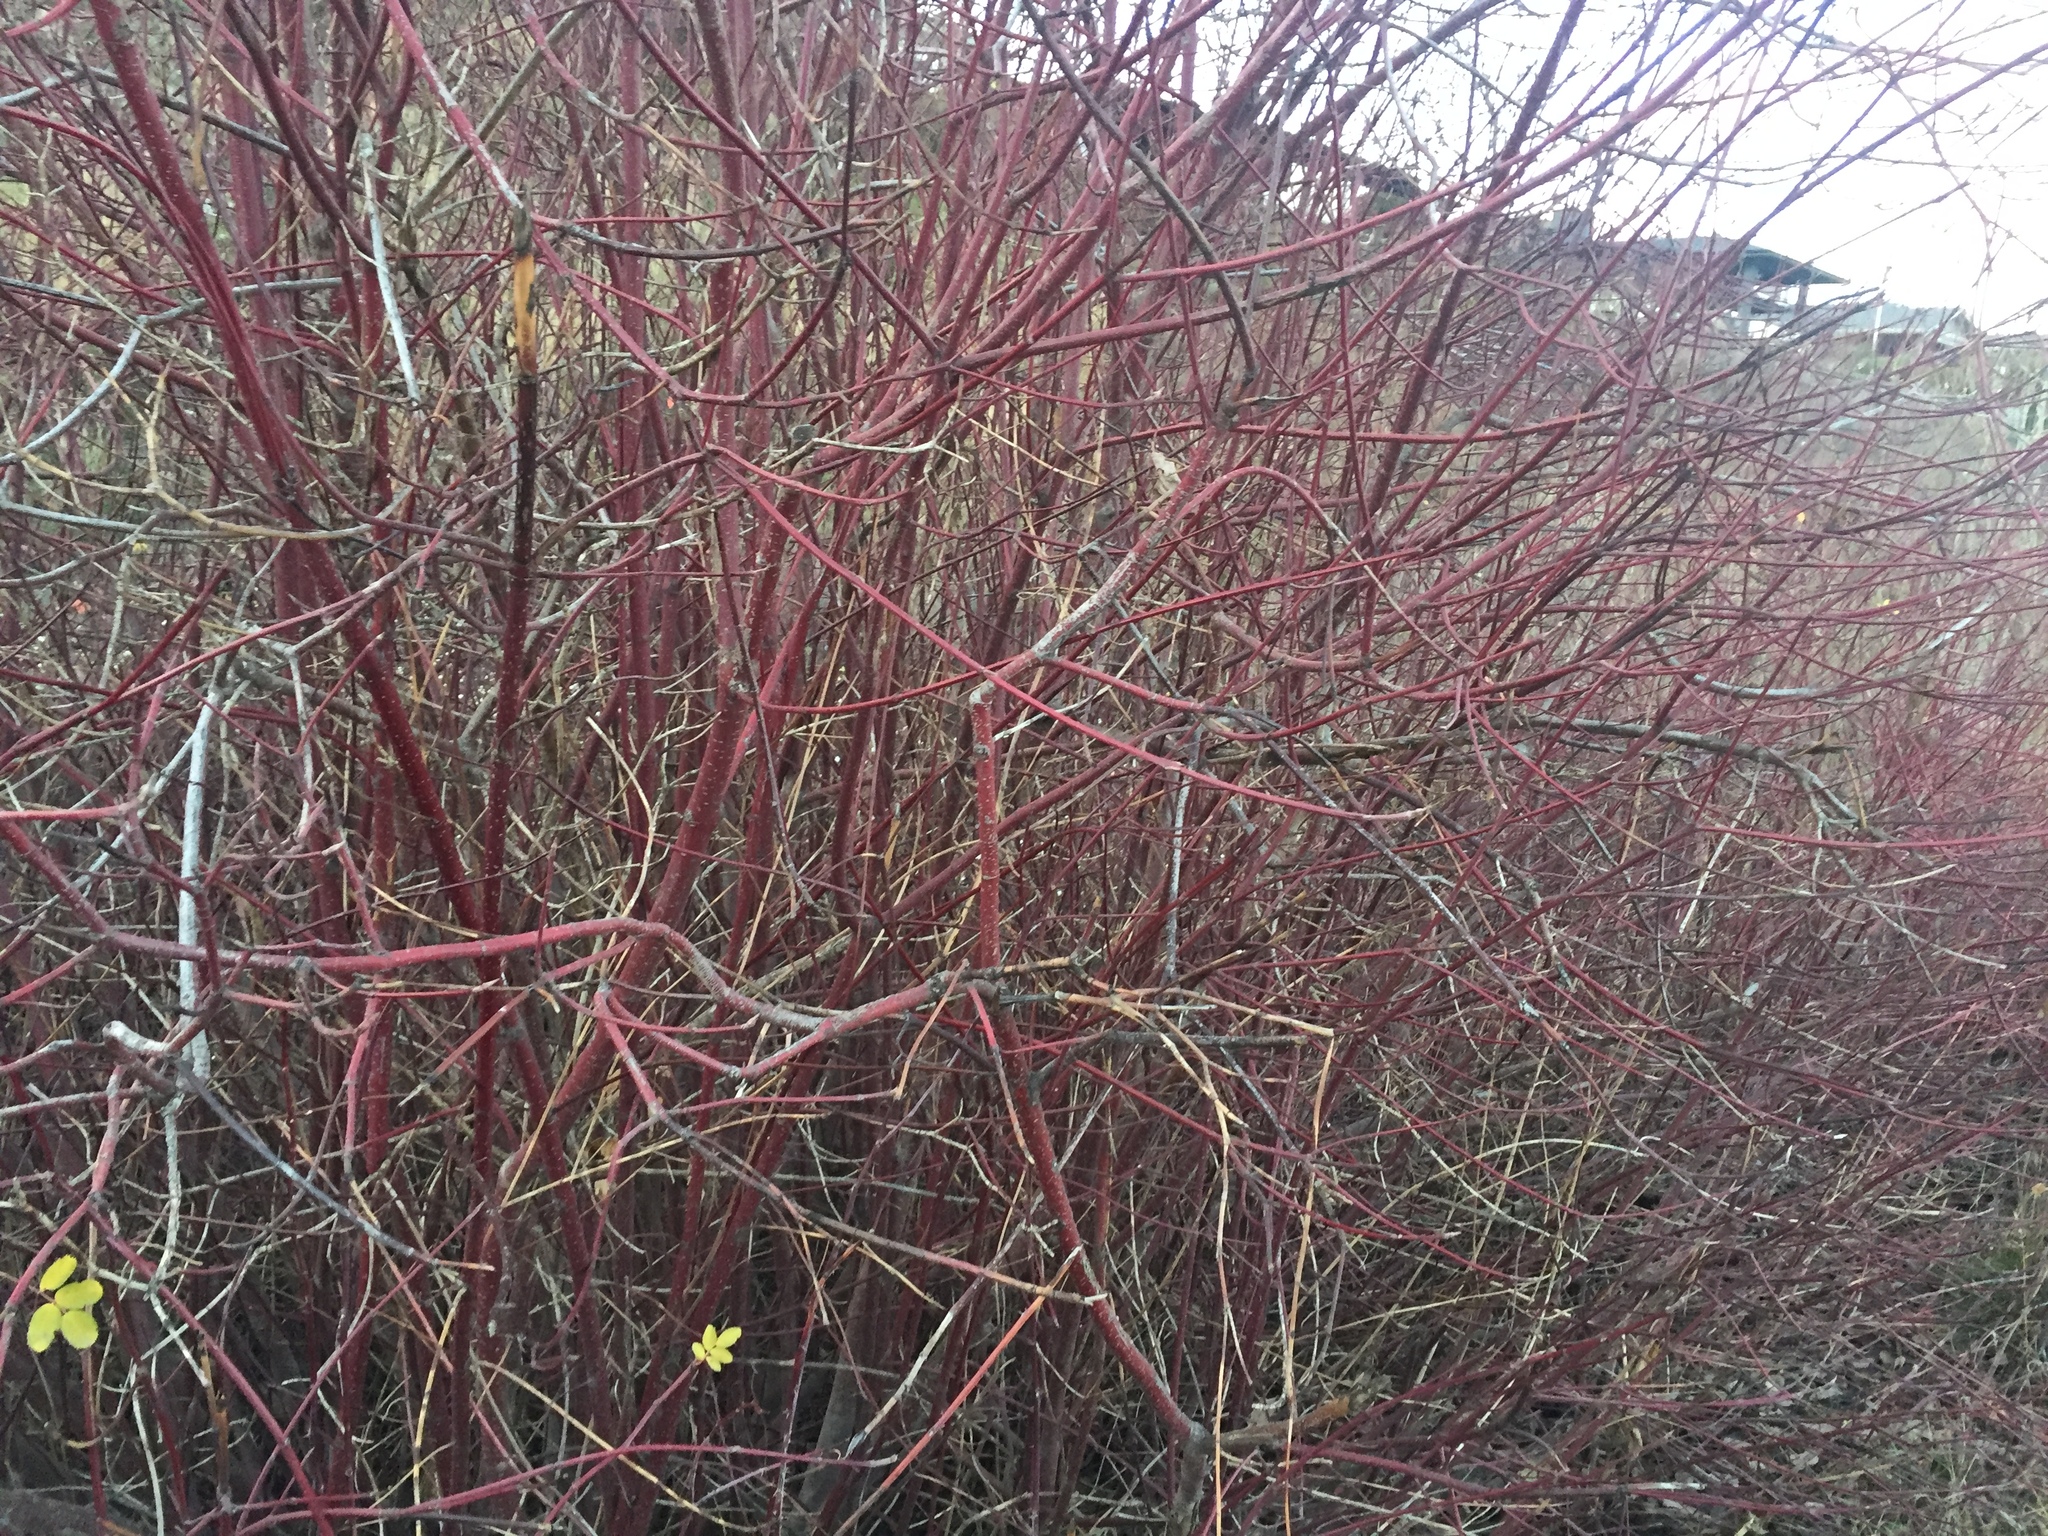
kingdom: Plantae
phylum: Tracheophyta
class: Magnoliopsida
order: Cornales
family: Cornaceae
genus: Cornus
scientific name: Cornus sericea
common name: Red-osier dogwood
